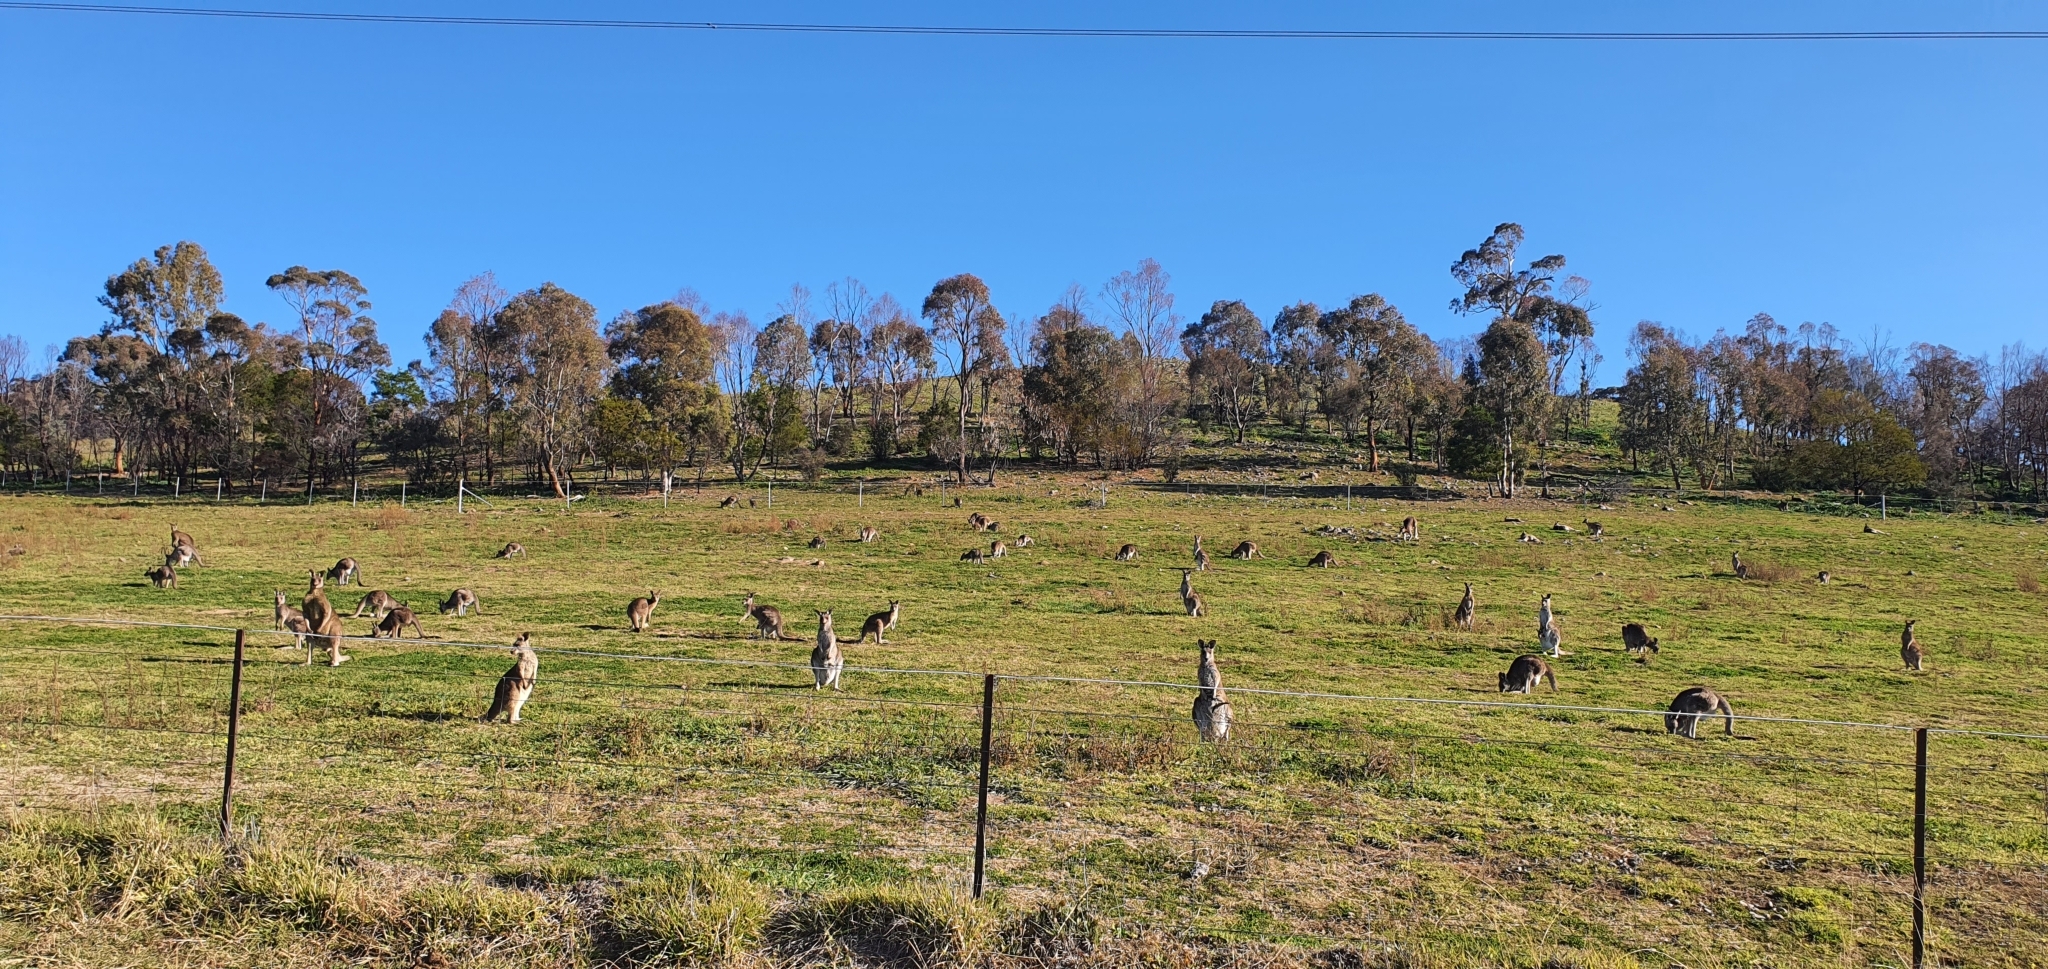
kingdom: Animalia
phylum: Chordata
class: Mammalia
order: Diprotodontia
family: Macropodidae
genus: Macropus
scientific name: Macropus giganteus
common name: Eastern grey kangaroo
